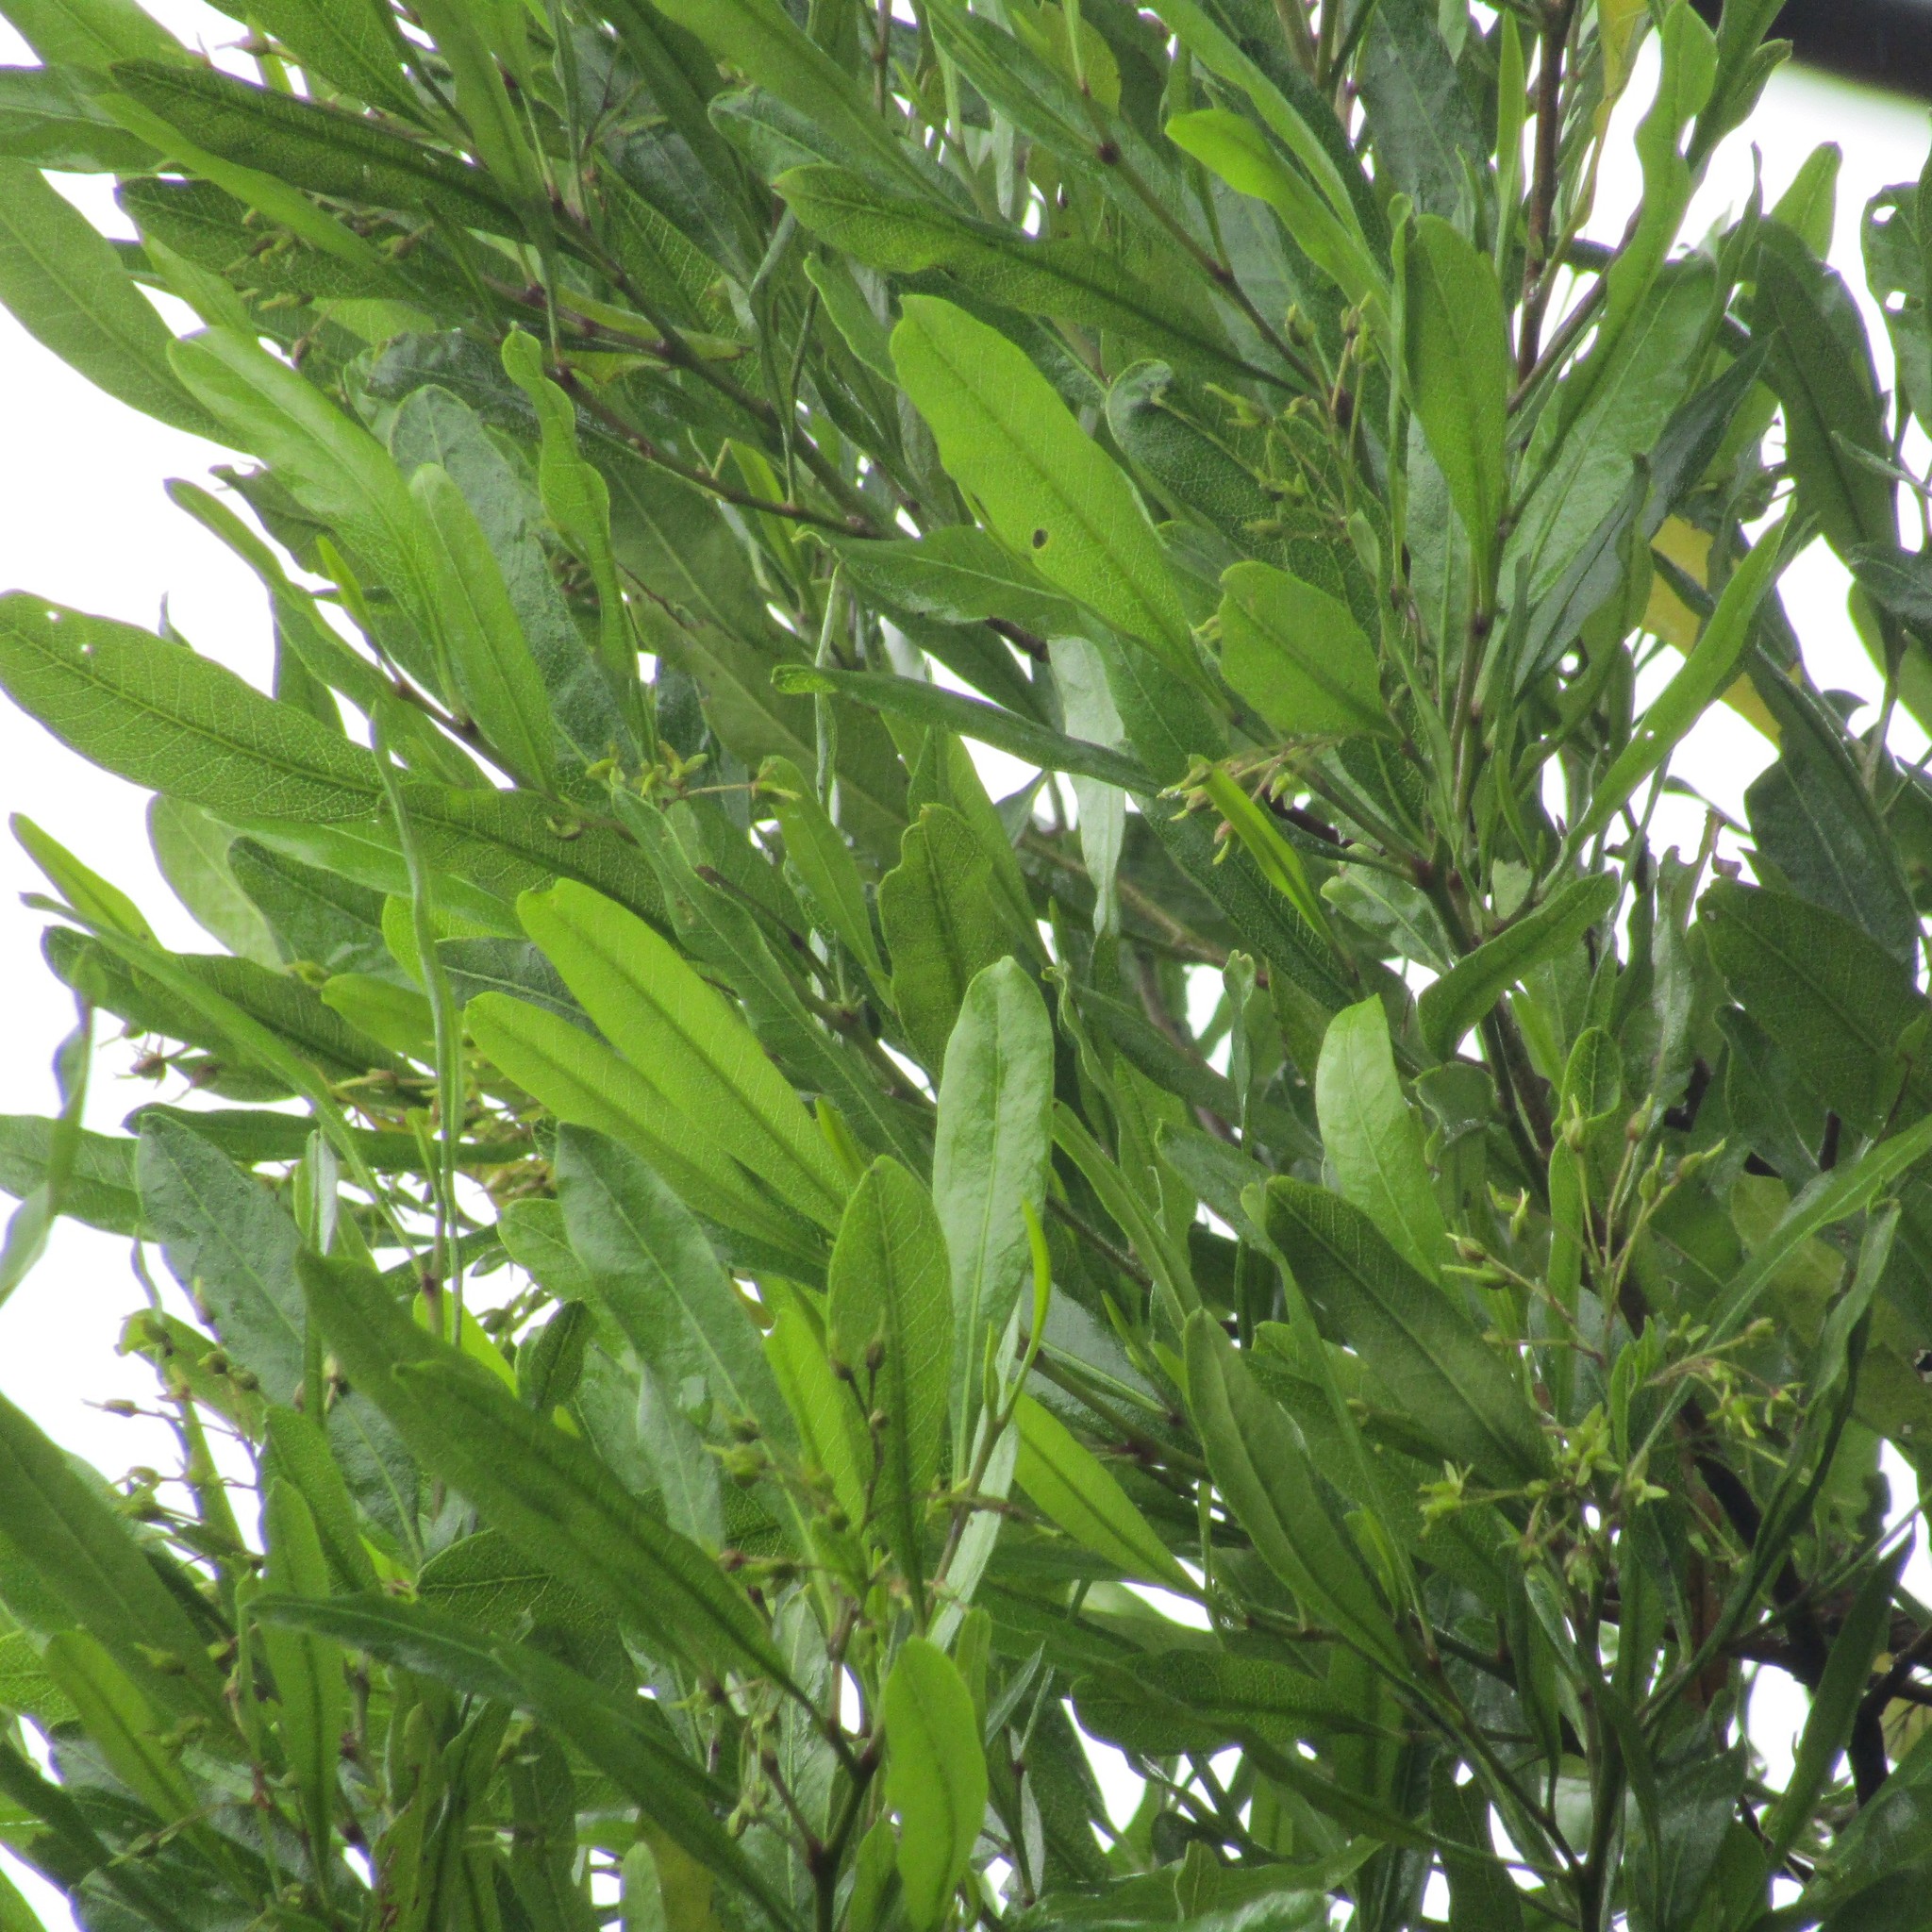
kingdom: Plantae
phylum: Tracheophyta
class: Magnoliopsida
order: Sapindales
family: Sapindaceae
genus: Dodonaea
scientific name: Dodonaea viscosa
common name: Hopbush
